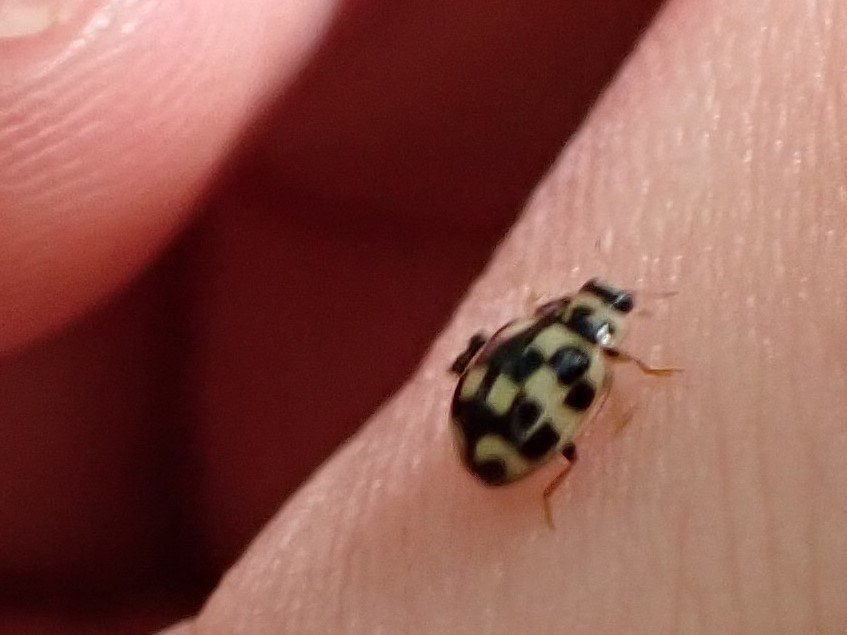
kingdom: Animalia
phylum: Arthropoda
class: Insecta
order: Coleoptera
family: Coccinellidae
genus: Propylaea
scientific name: Propylaea quatuordecimpunctata
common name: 14-spotted ladybird beetle
